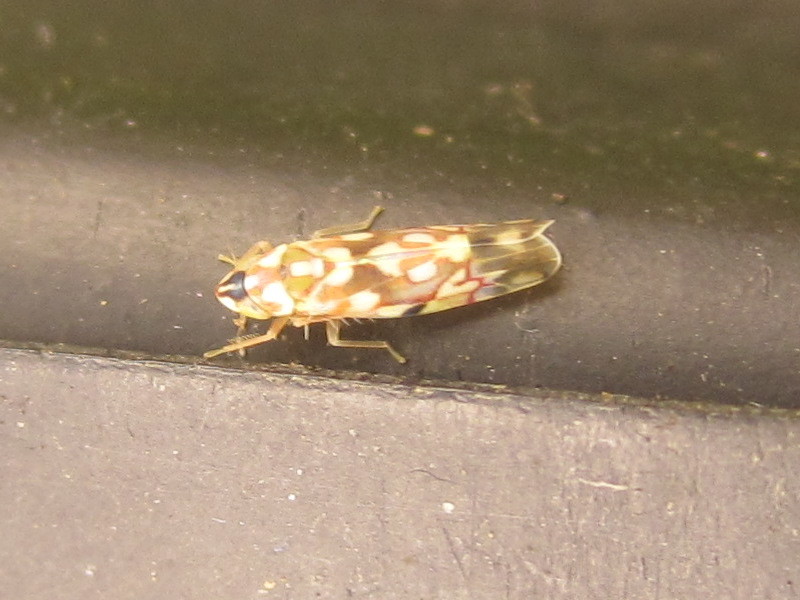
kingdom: Animalia
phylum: Arthropoda
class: Insecta
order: Hemiptera
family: Cicadellidae
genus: Erythroneura
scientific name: Erythroneura pontifex
